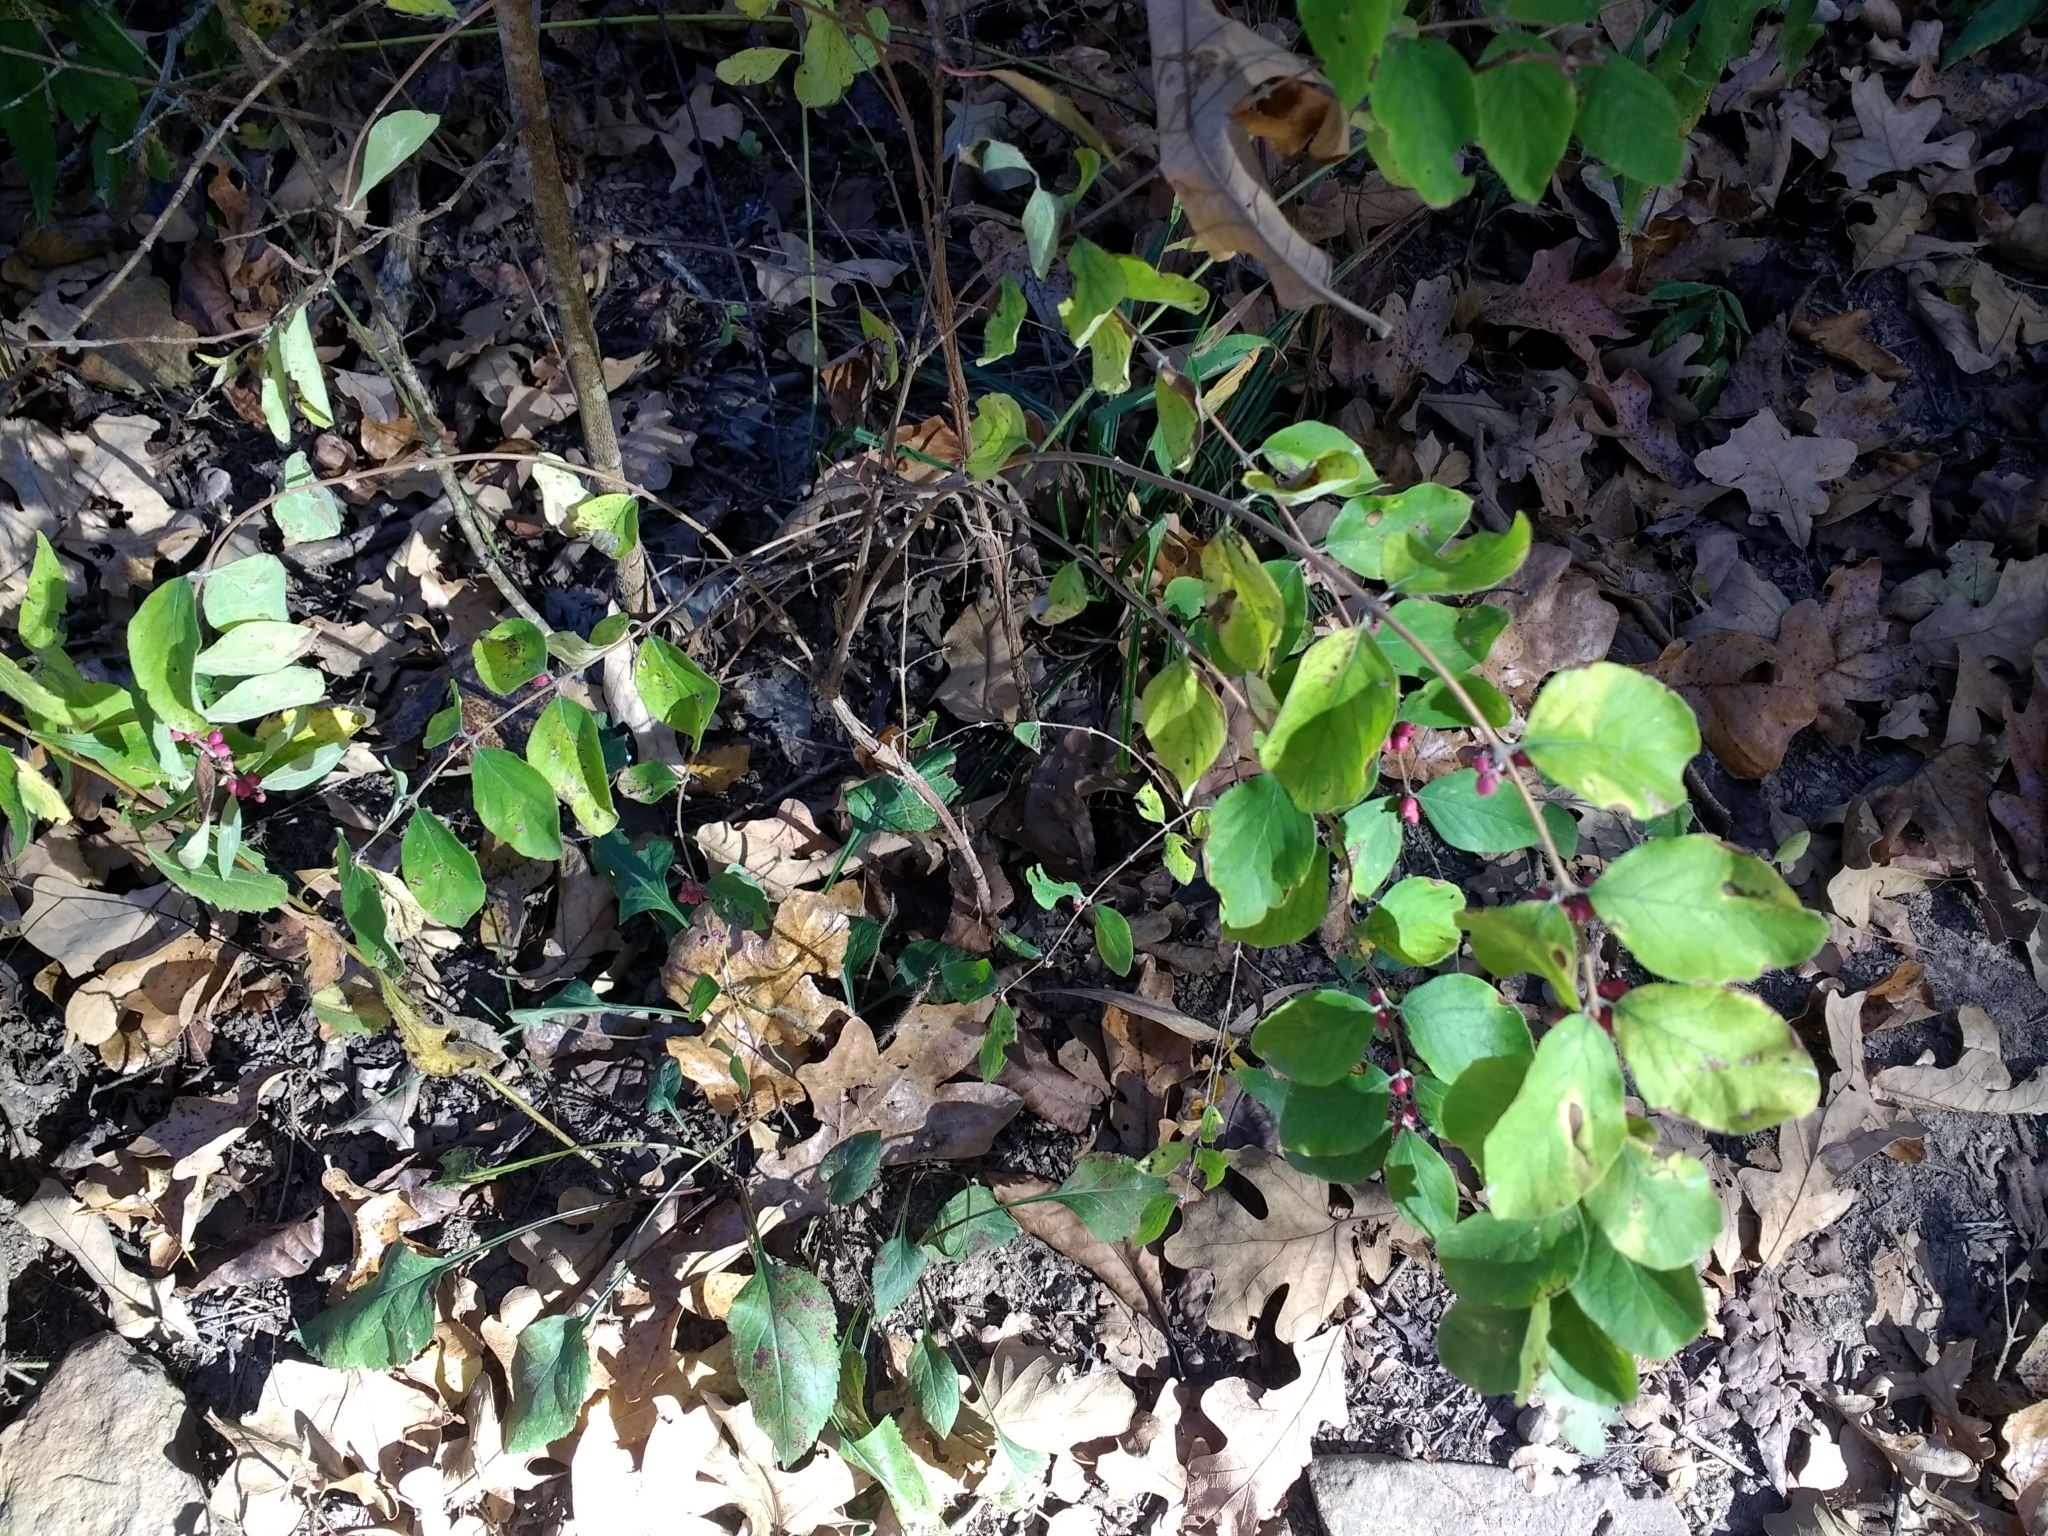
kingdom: Plantae
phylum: Tracheophyta
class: Magnoliopsida
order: Dipsacales
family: Caprifoliaceae
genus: Symphoricarpos
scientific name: Symphoricarpos orbiculatus
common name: Coralberry
